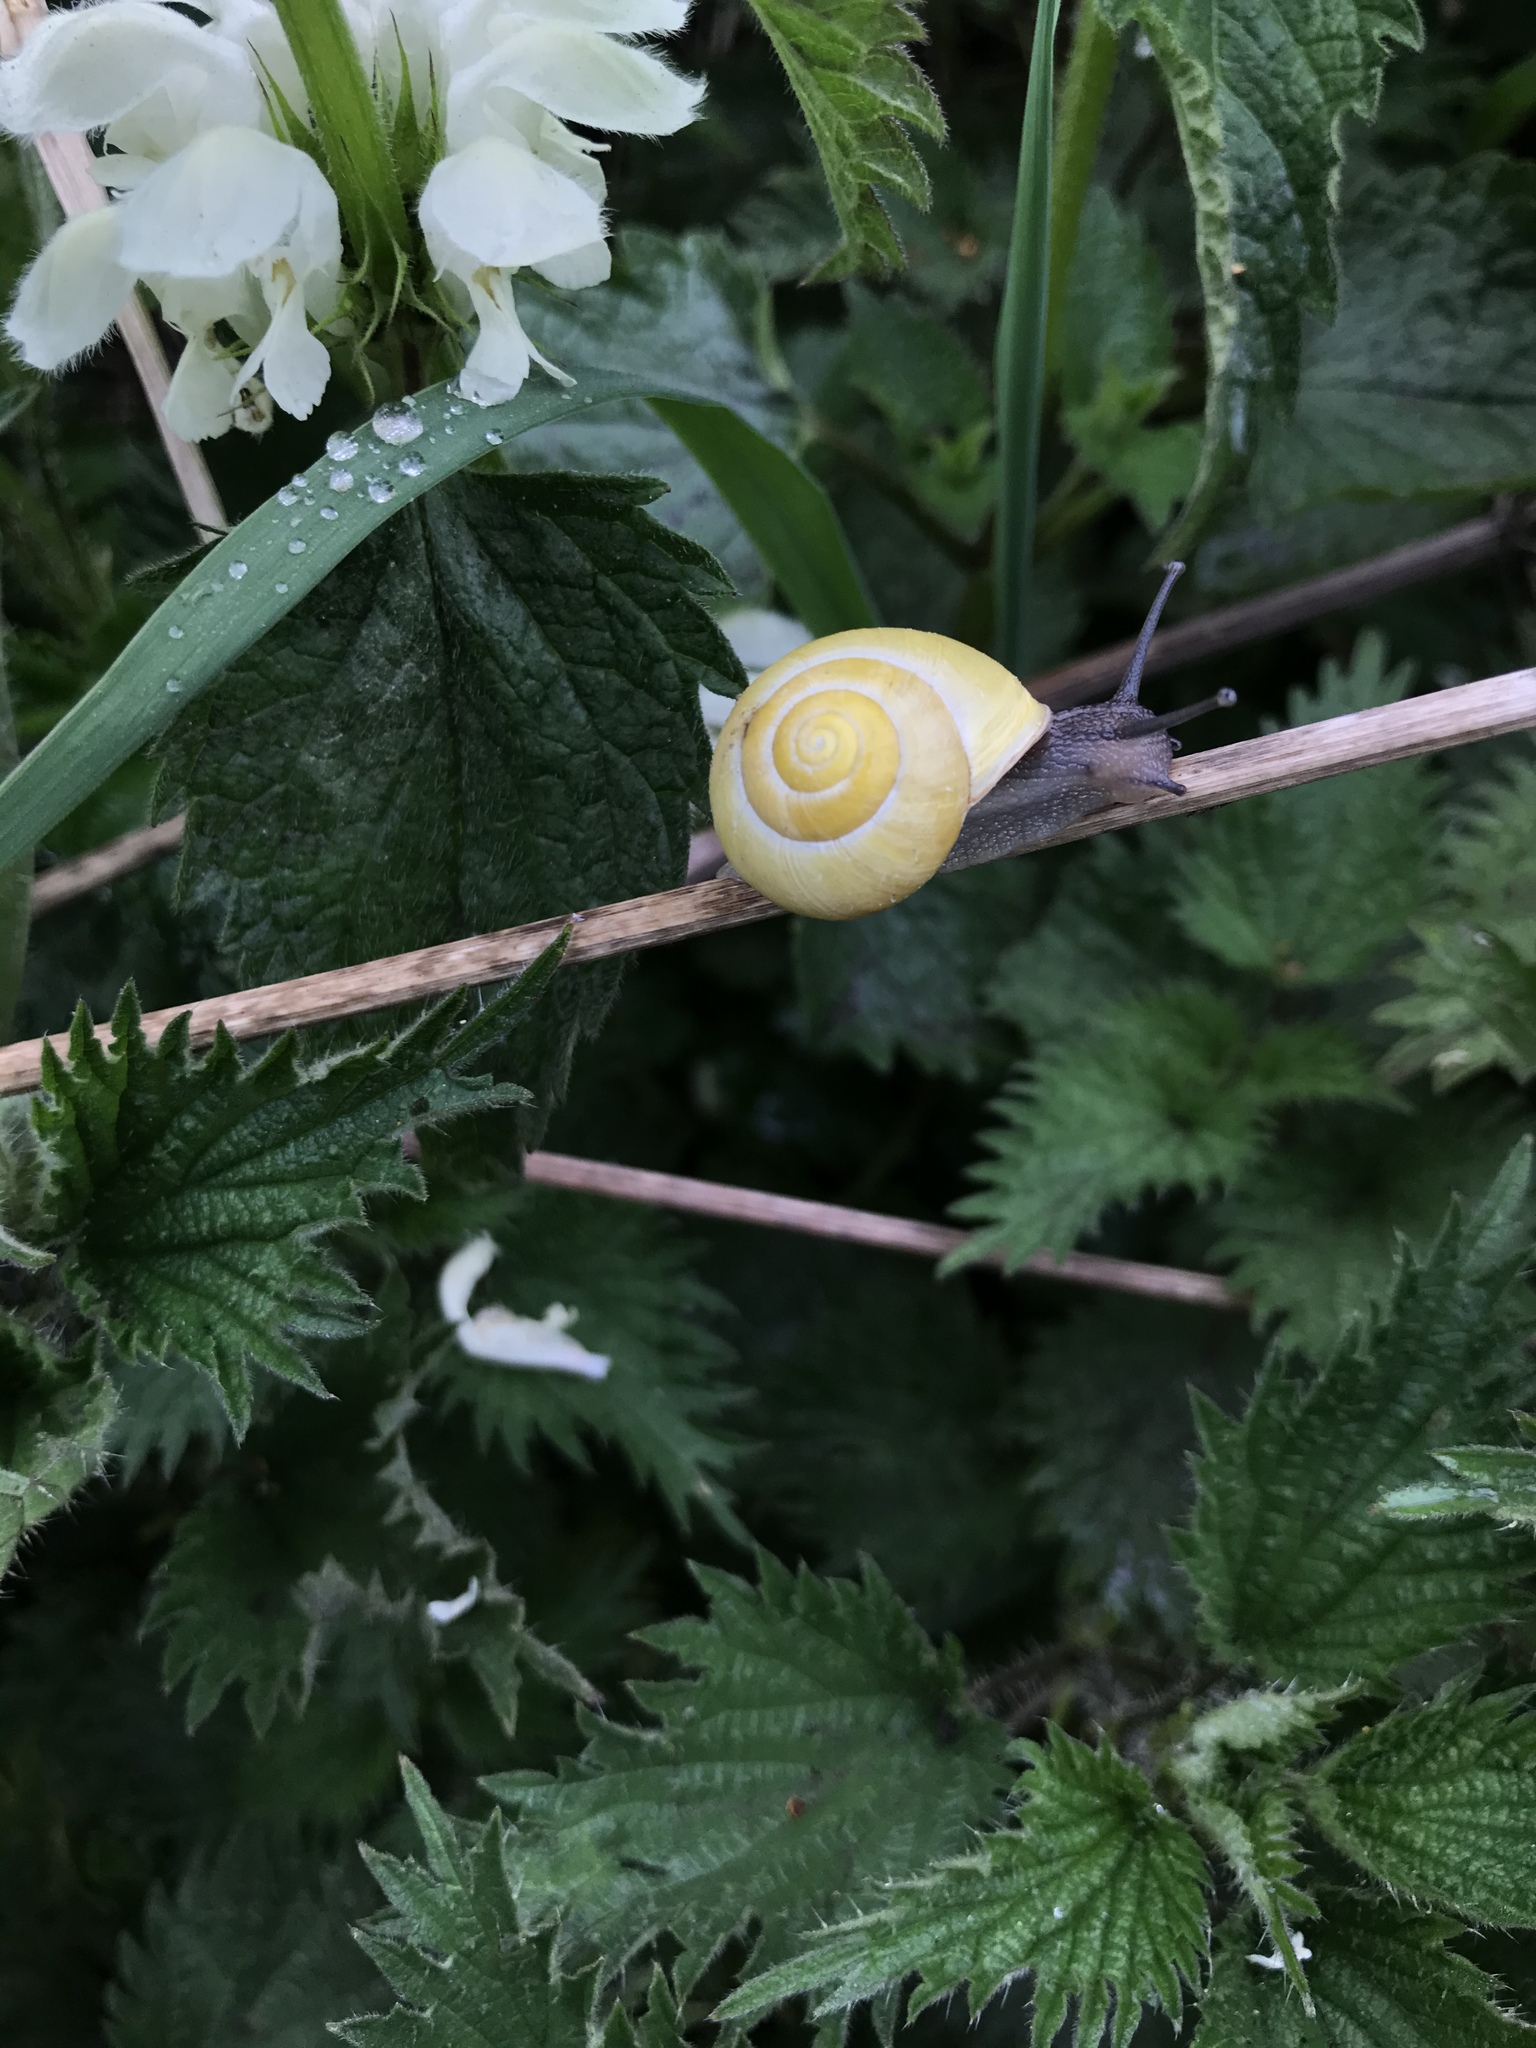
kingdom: Animalia
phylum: Mollusca
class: Gastropoda
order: Stylommatophora
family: Helicidae
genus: Cepaea
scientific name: Cepaea hortensis
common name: White-lip gardensnail
